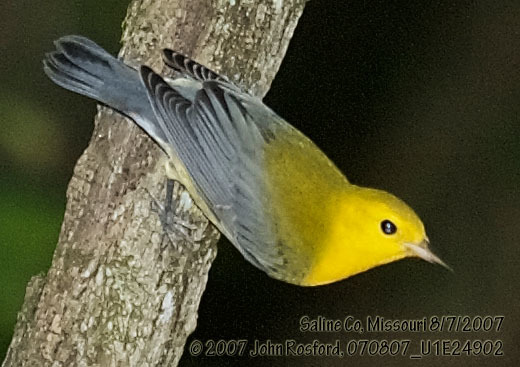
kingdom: Animalia
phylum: Chordata
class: Aves
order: Passeriformes
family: Parulidae
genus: Protonotaria
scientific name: Protonotaria citrea
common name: Prothonotary warbler
